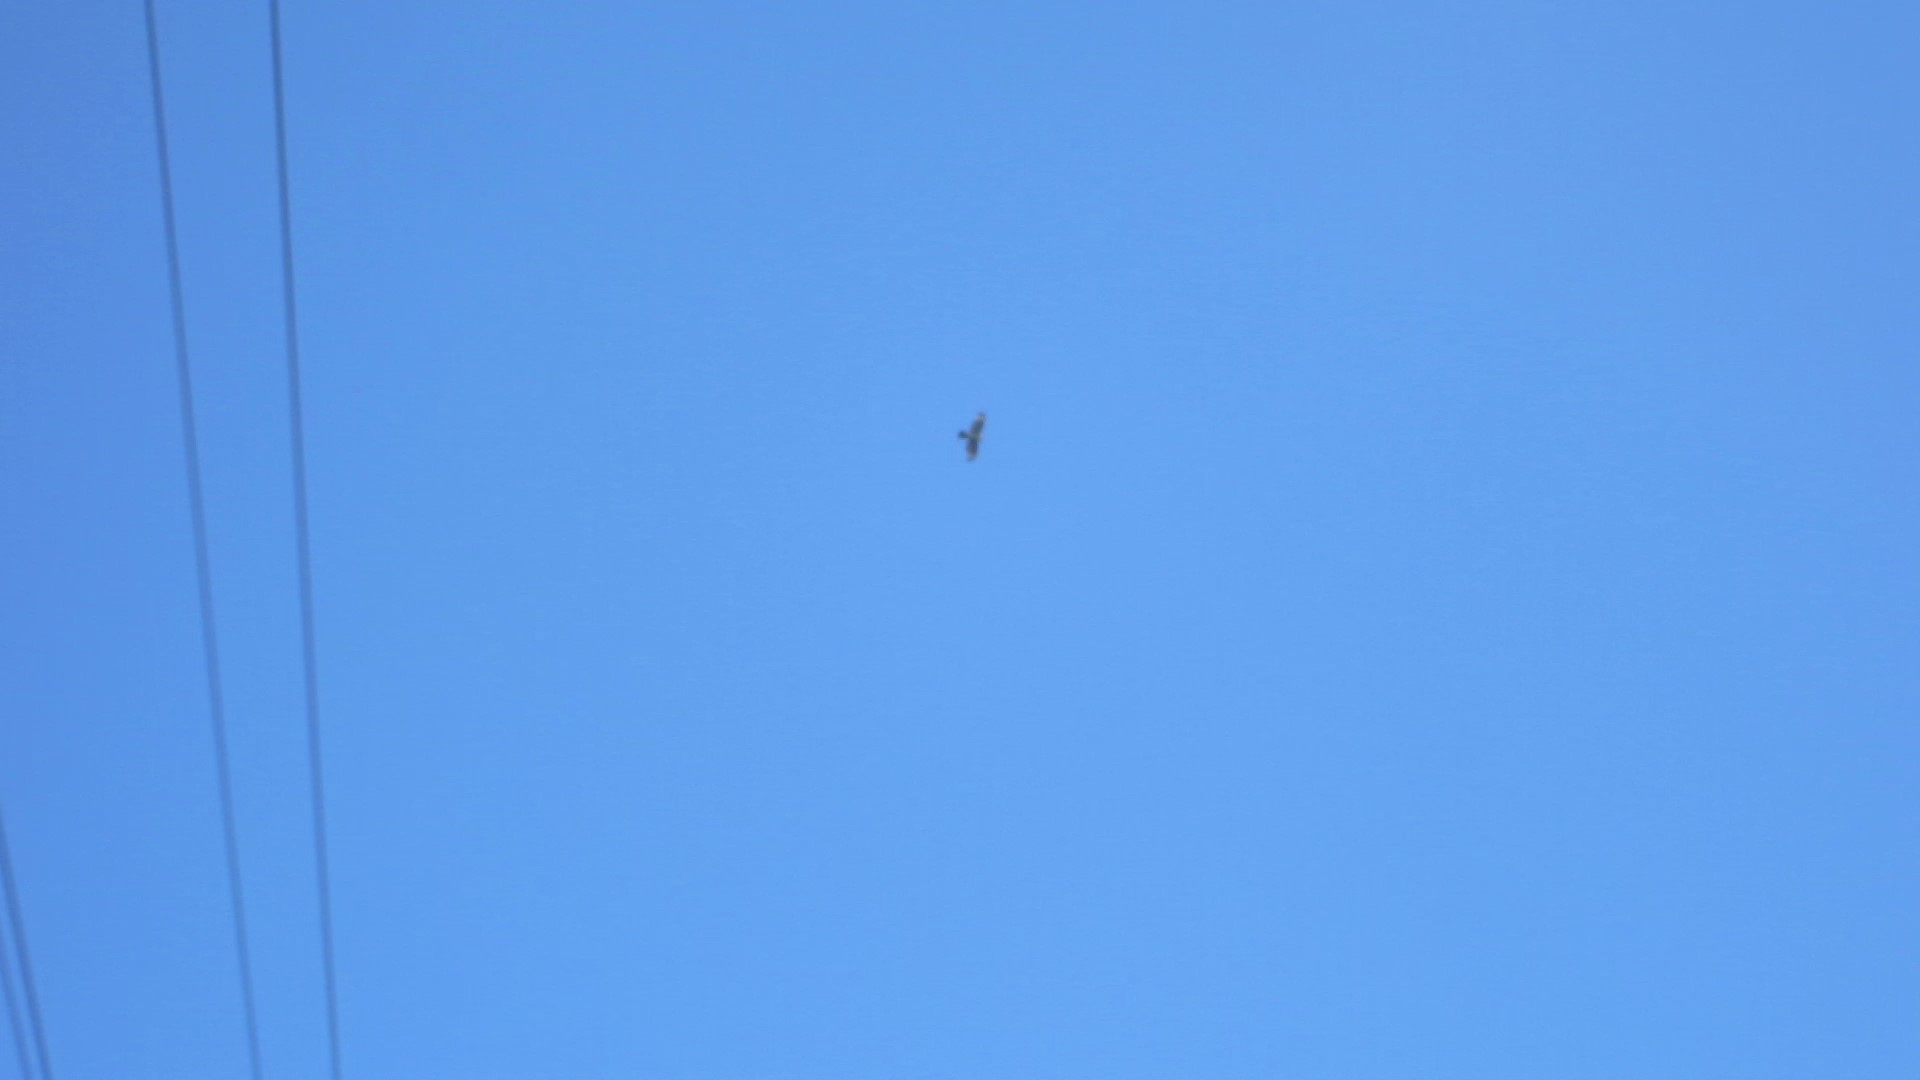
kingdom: Animalia
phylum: Chordata
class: Aves
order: Accipitriformes
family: Accipitridae
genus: Buteo
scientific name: Buteo lineatus
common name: Red-shouldered hawk
